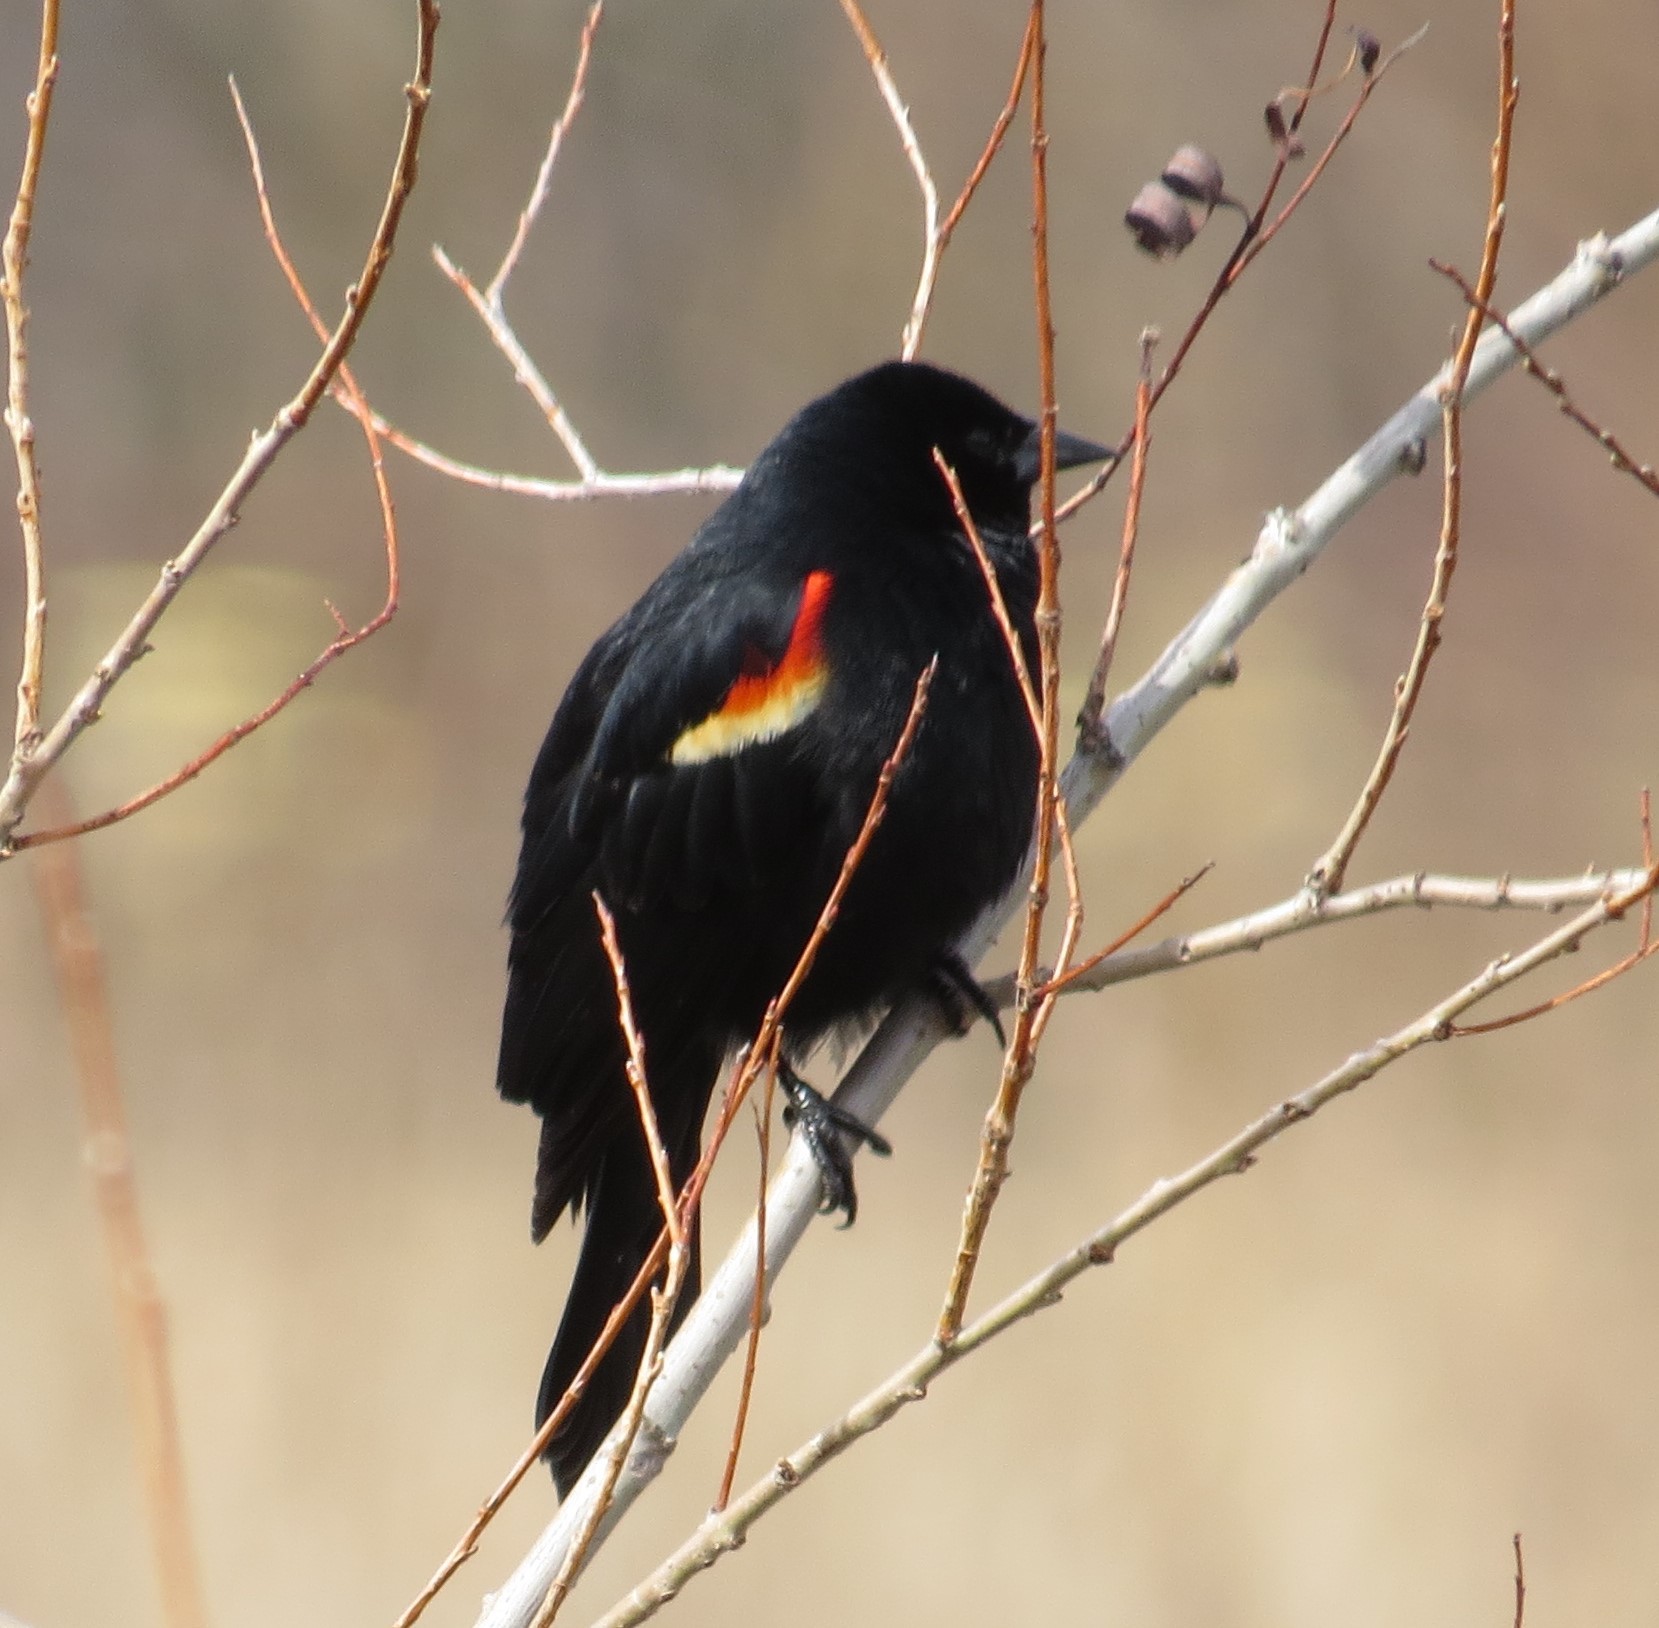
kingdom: Animalia
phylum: Chordata
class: Aves
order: Passeriformes
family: Icteridae
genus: Agelaius
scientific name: Agelaius phoeniceus
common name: Red-winged blackbird
